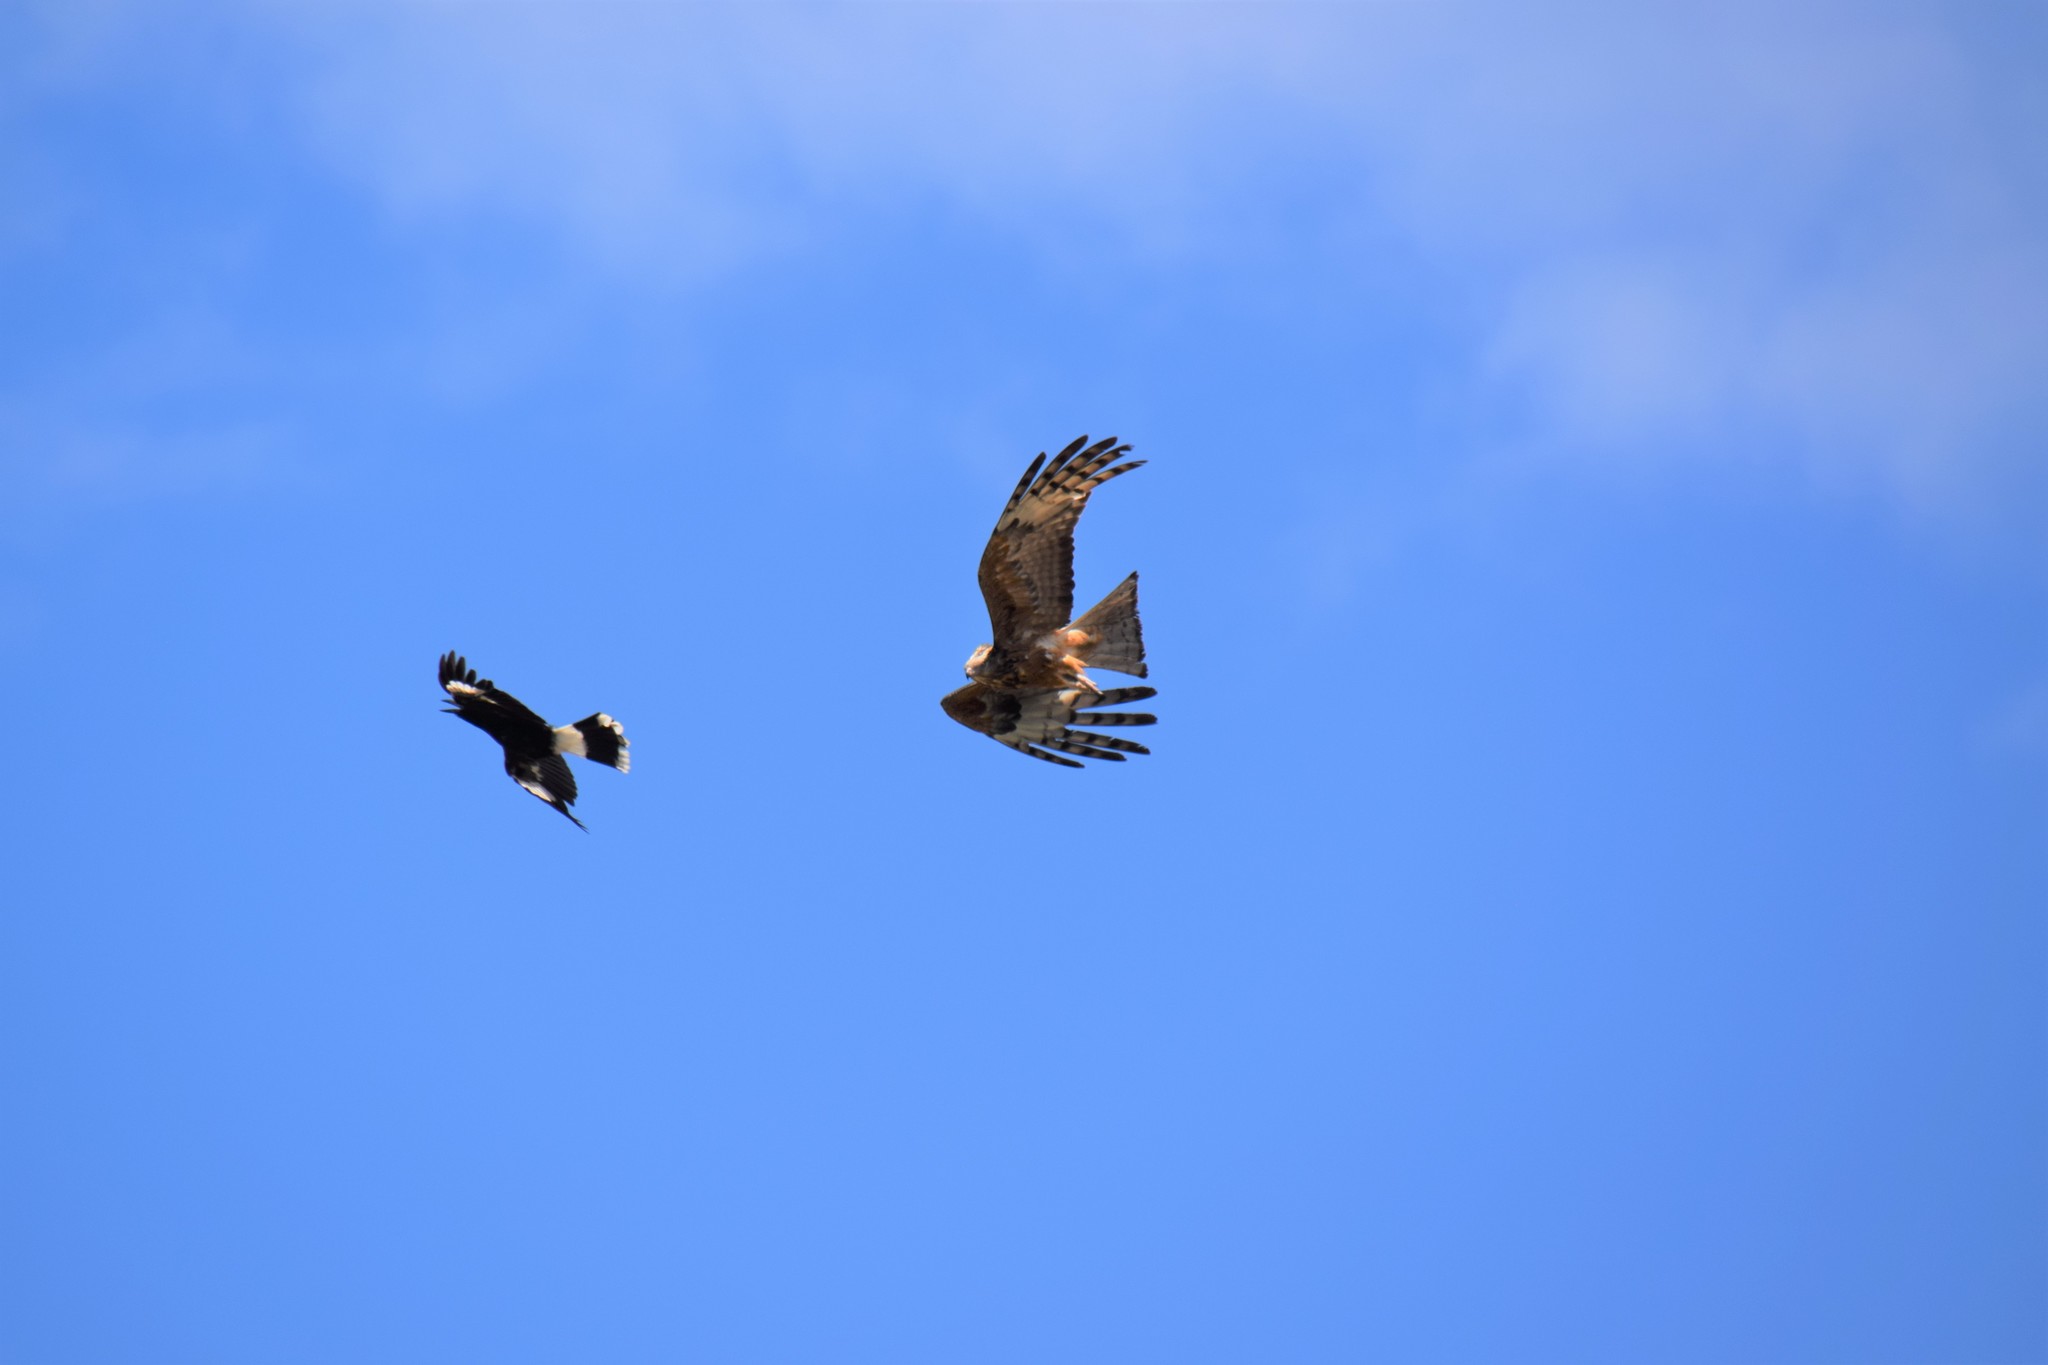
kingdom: Animalia
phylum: Chordata
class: Aves
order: Accipitriformes
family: Accipitridae
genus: Lophoictinia
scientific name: Lophoictinia isura
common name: Square-tailed kite
